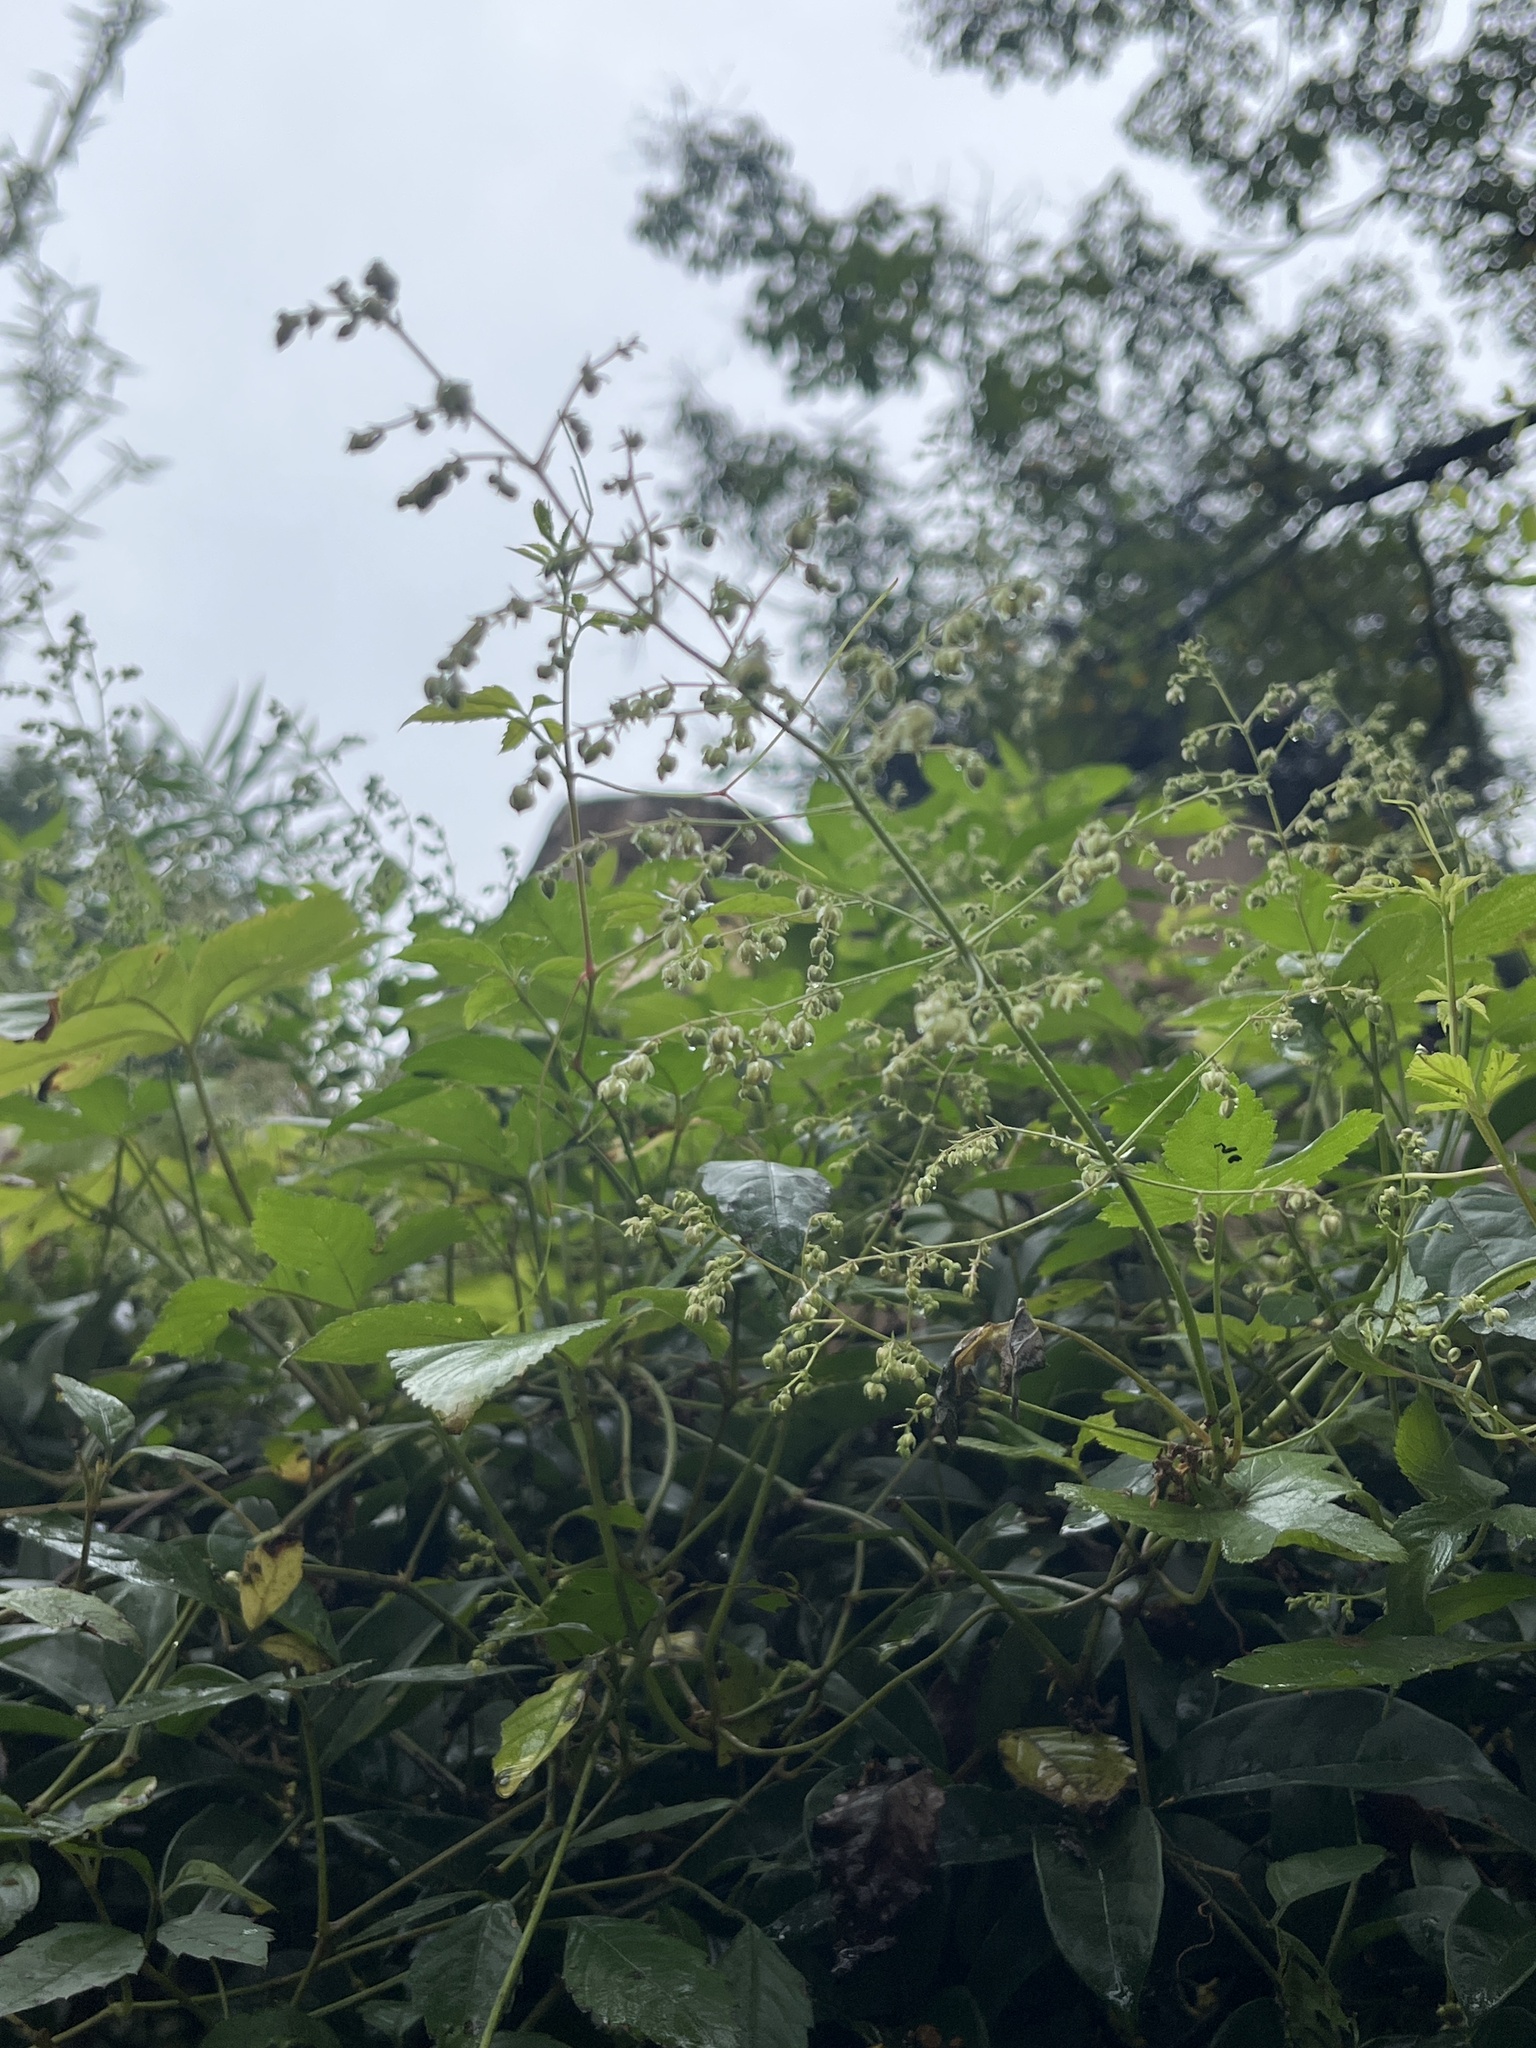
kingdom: Plantae
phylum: Tracheophyta
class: Magnoliopsida
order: Rosales
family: Cannabaceae
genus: Humulus
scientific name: Humulus scandens
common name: Japanese hop
